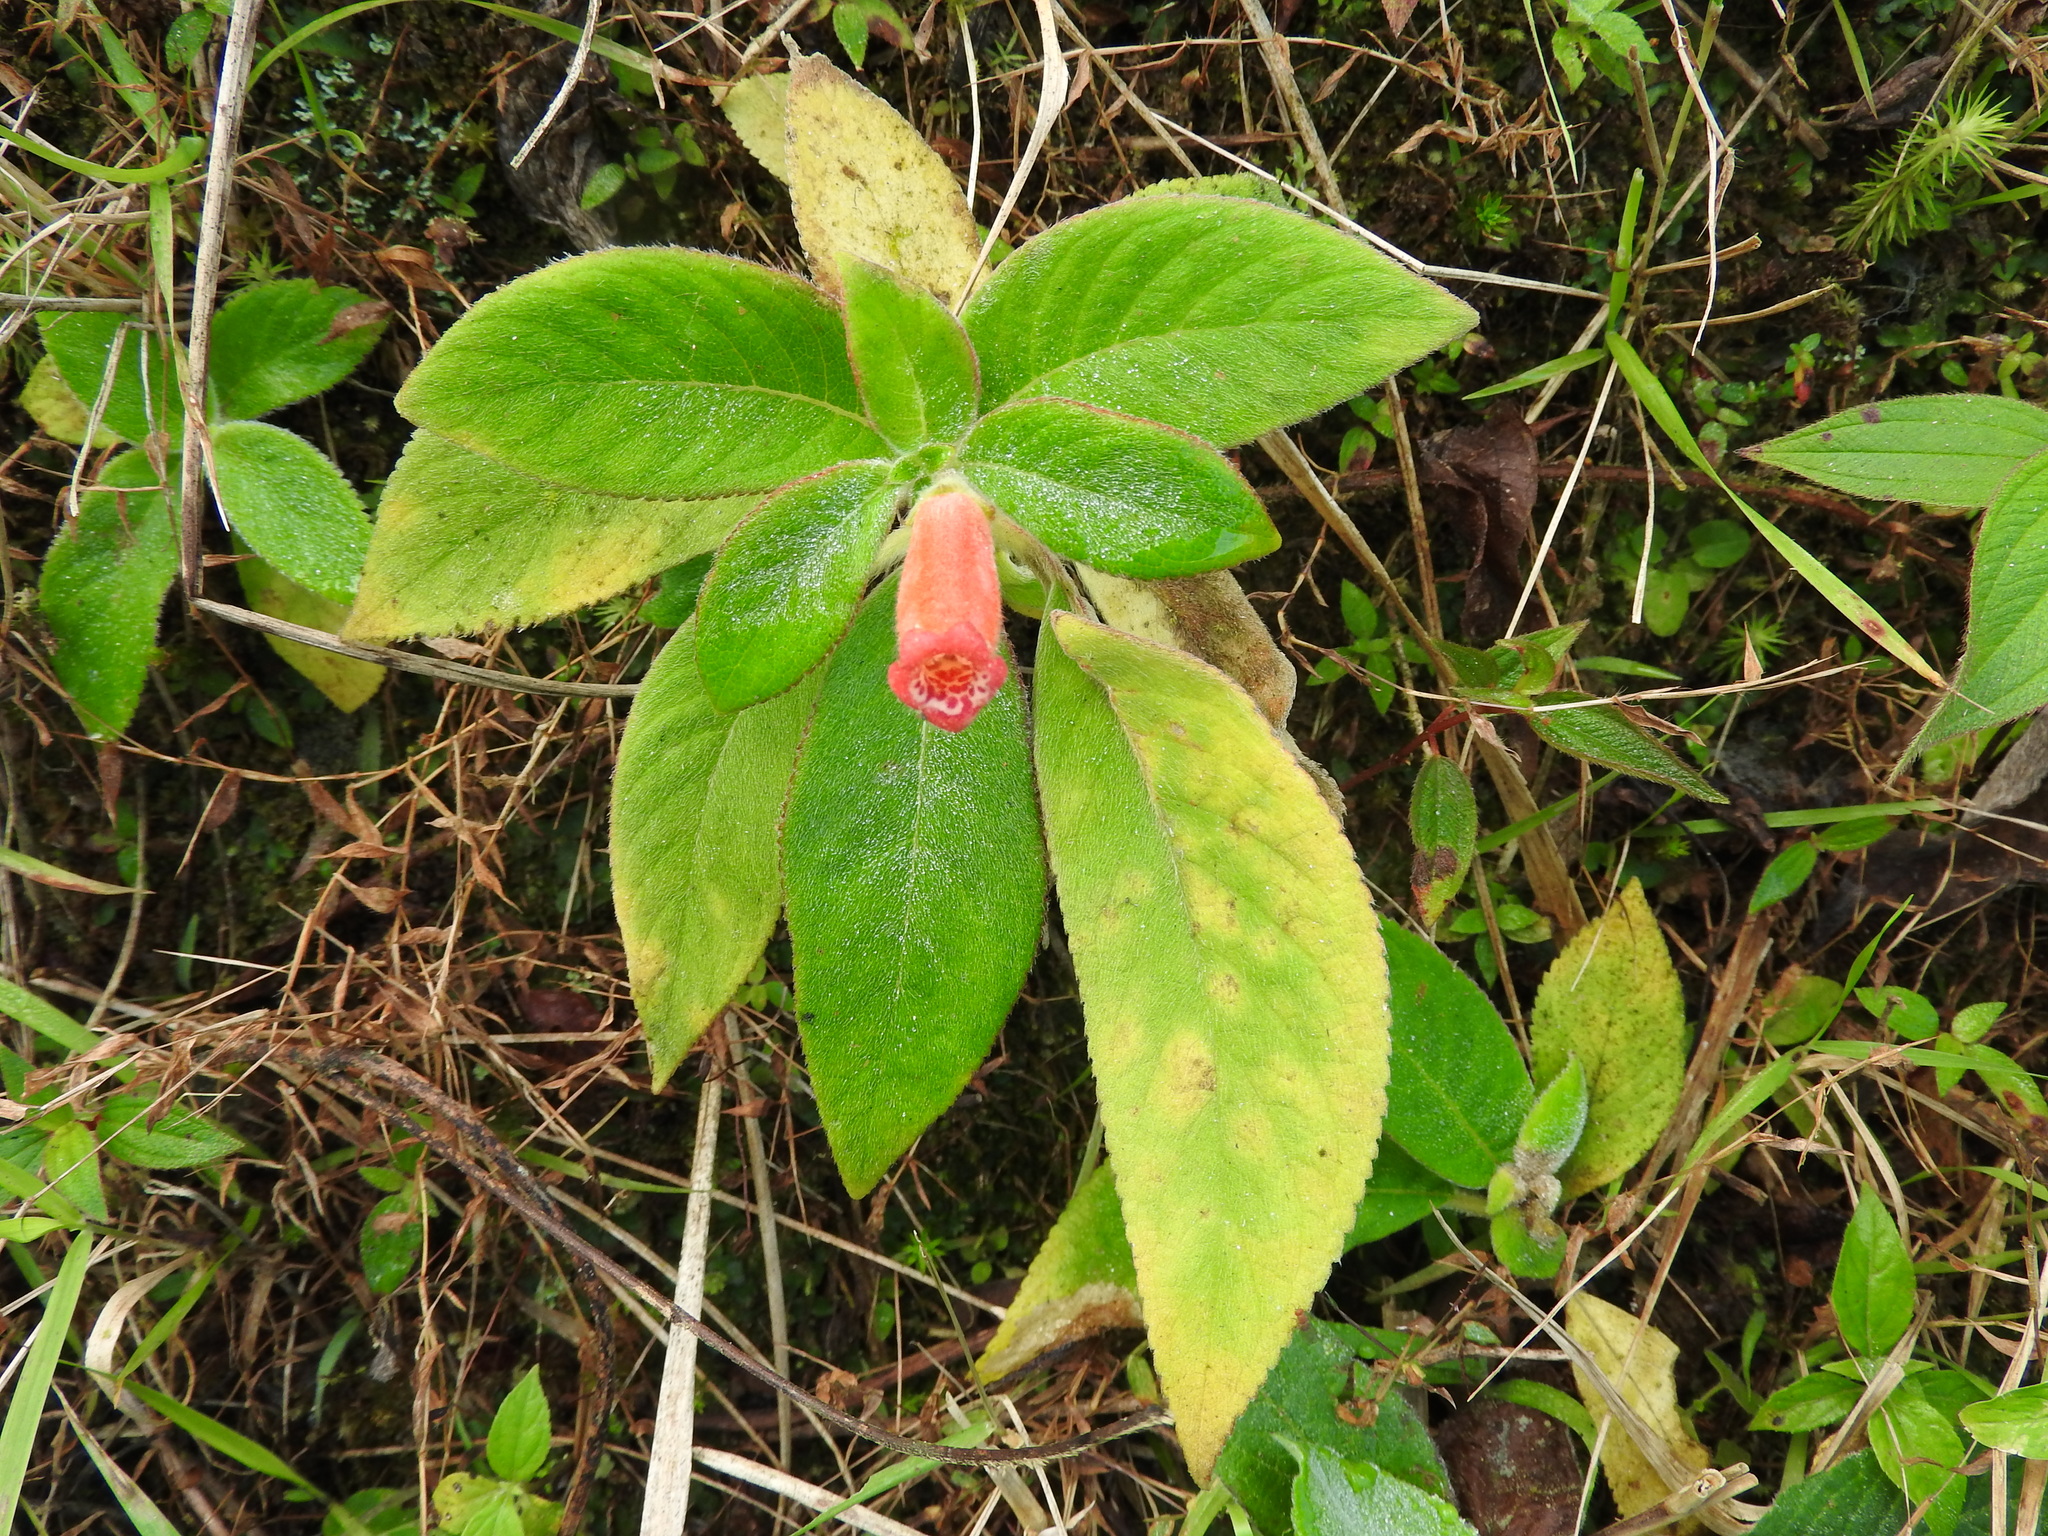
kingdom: Plantae
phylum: Tracheophyta
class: Magnoliopsida
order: Lamiales
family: Gesneriaceae
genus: Kohleria
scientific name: Kohleria spicata
